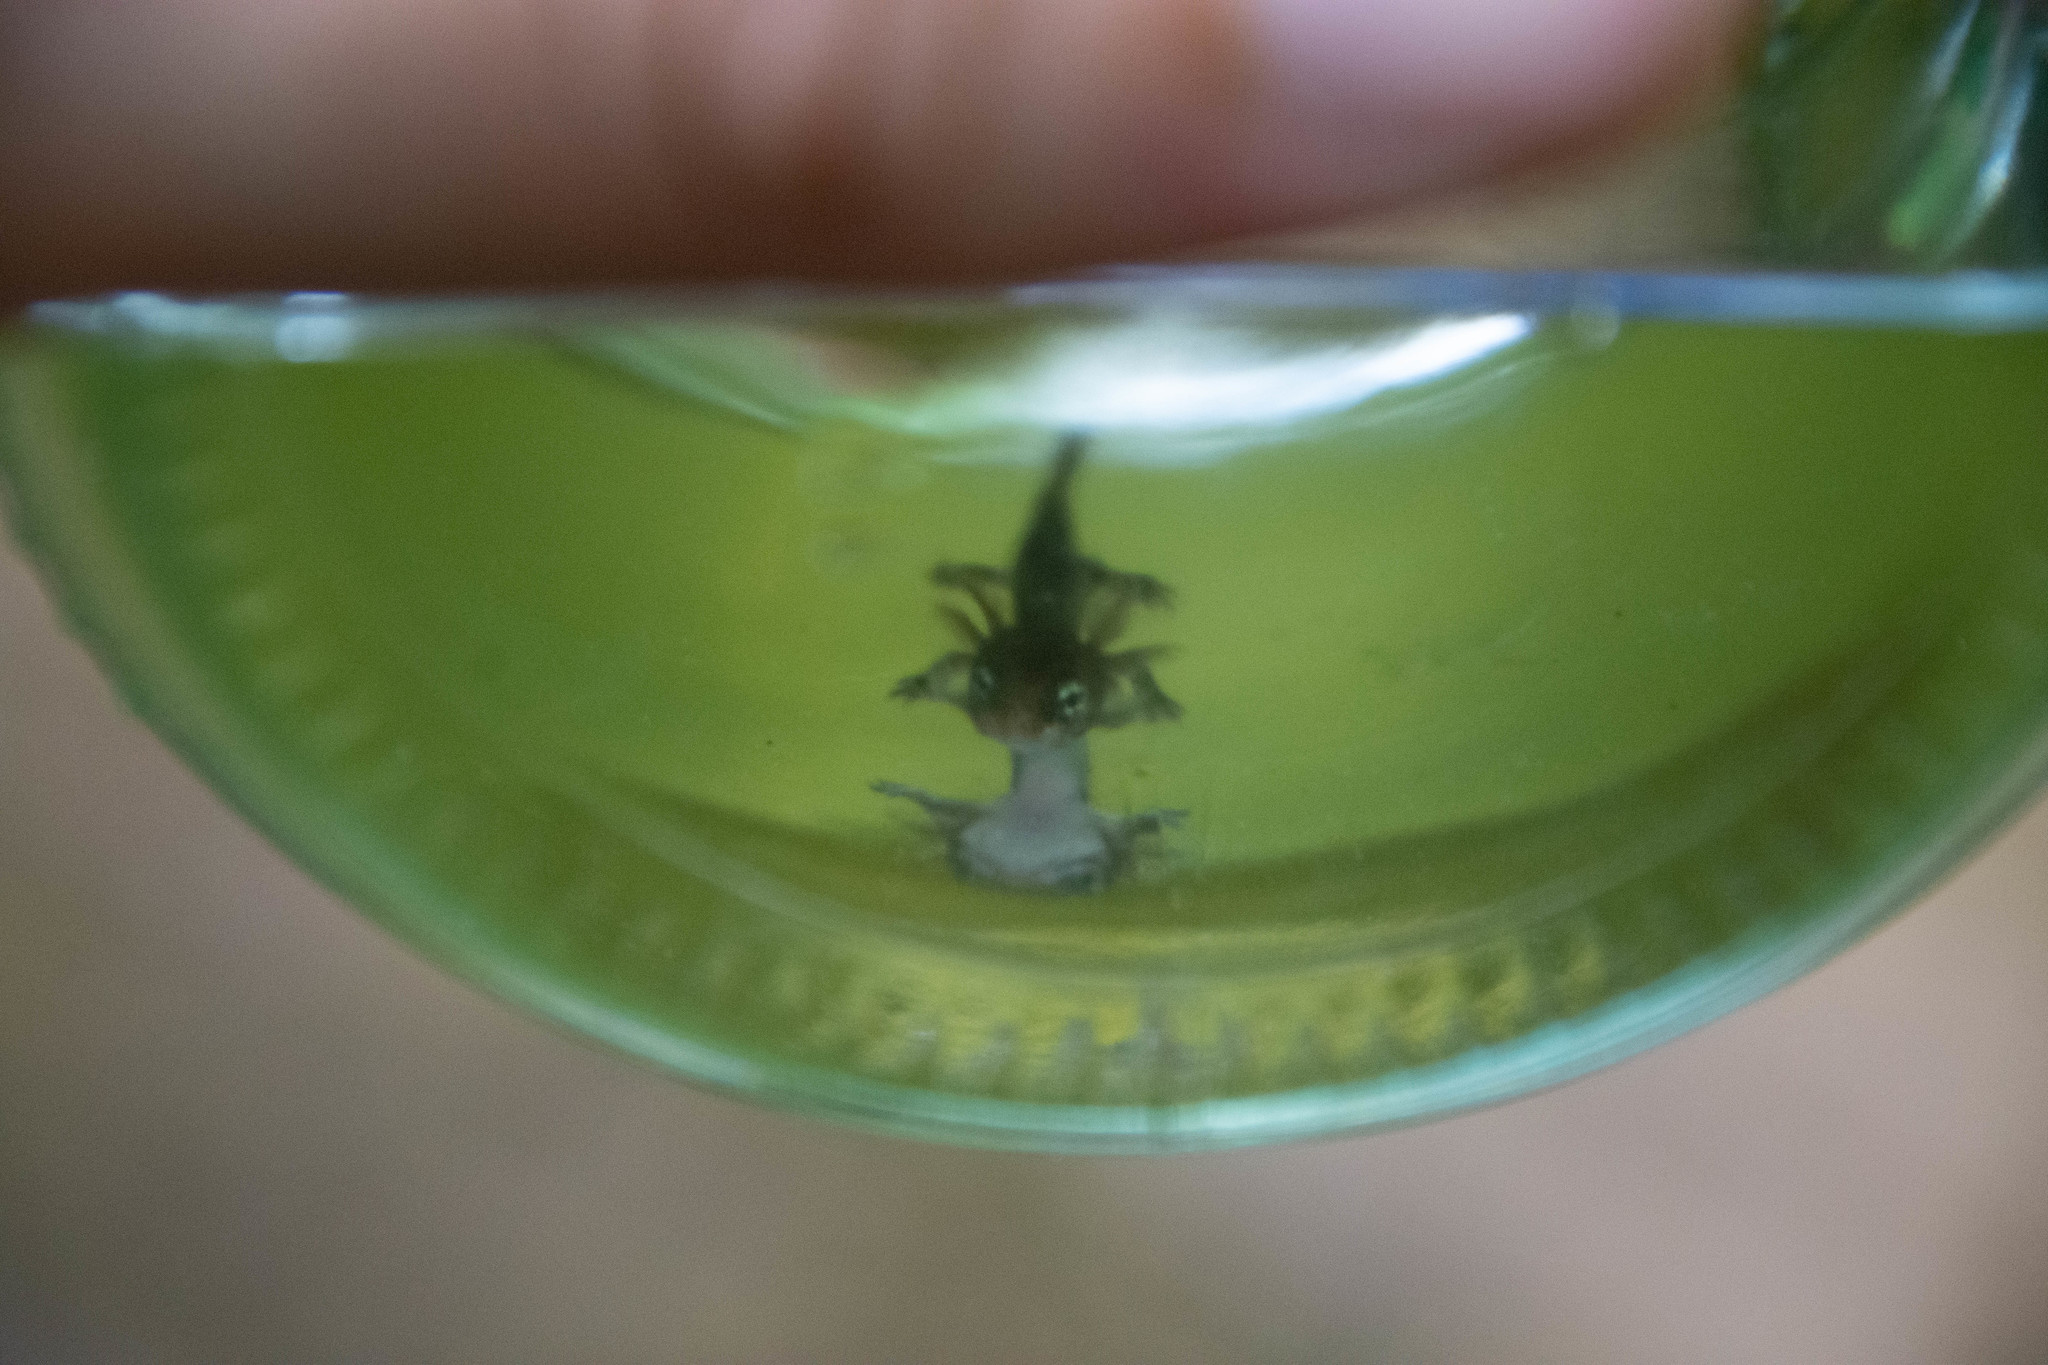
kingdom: Animalia
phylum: Chordata
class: Amphibia
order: Caudata
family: Salamandridae
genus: Salamandra
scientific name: Salamandra salamandra
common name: Fire salamander
